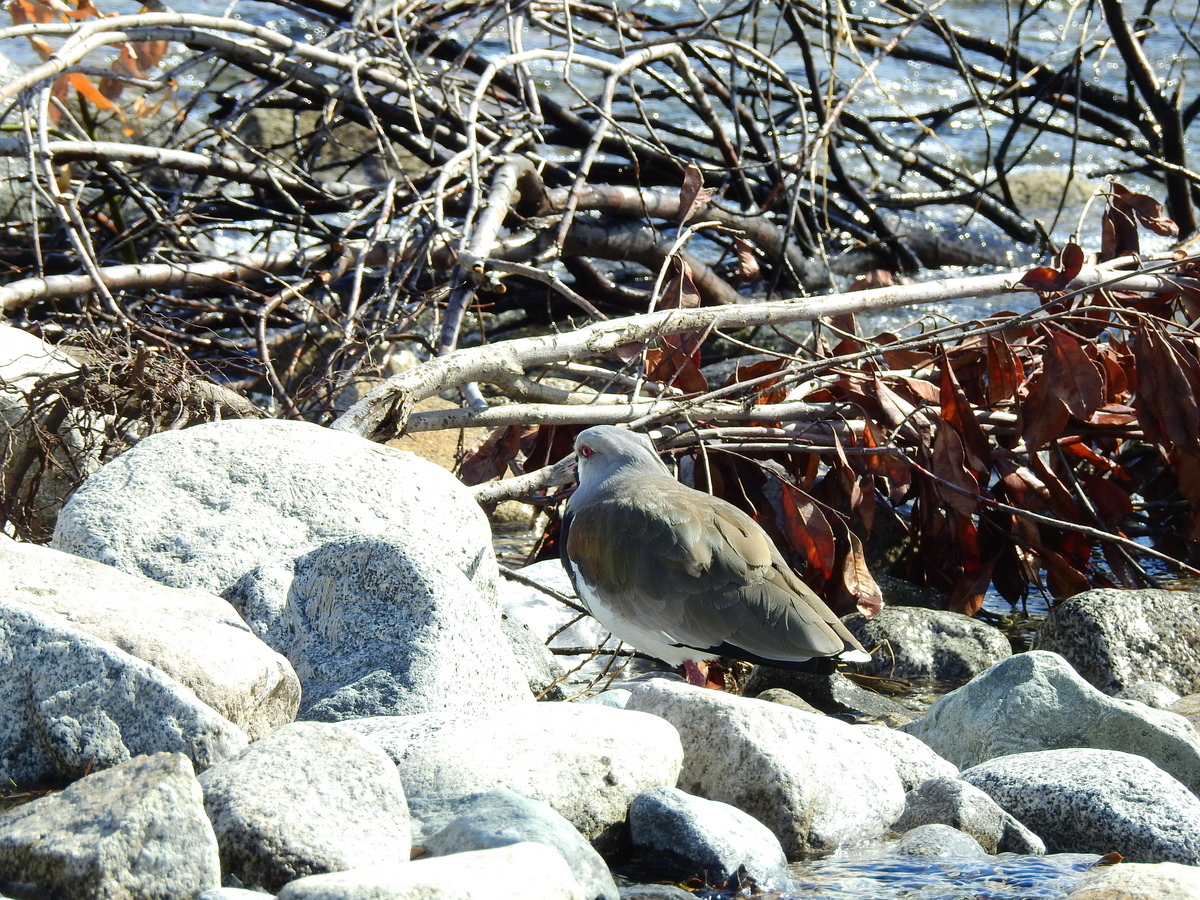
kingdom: Animalia
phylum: Chordata
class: Aves
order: Charadriiformes
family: Charadriidae
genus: Vanellus
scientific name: Vanellus chilensis
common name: Southern lapwing
